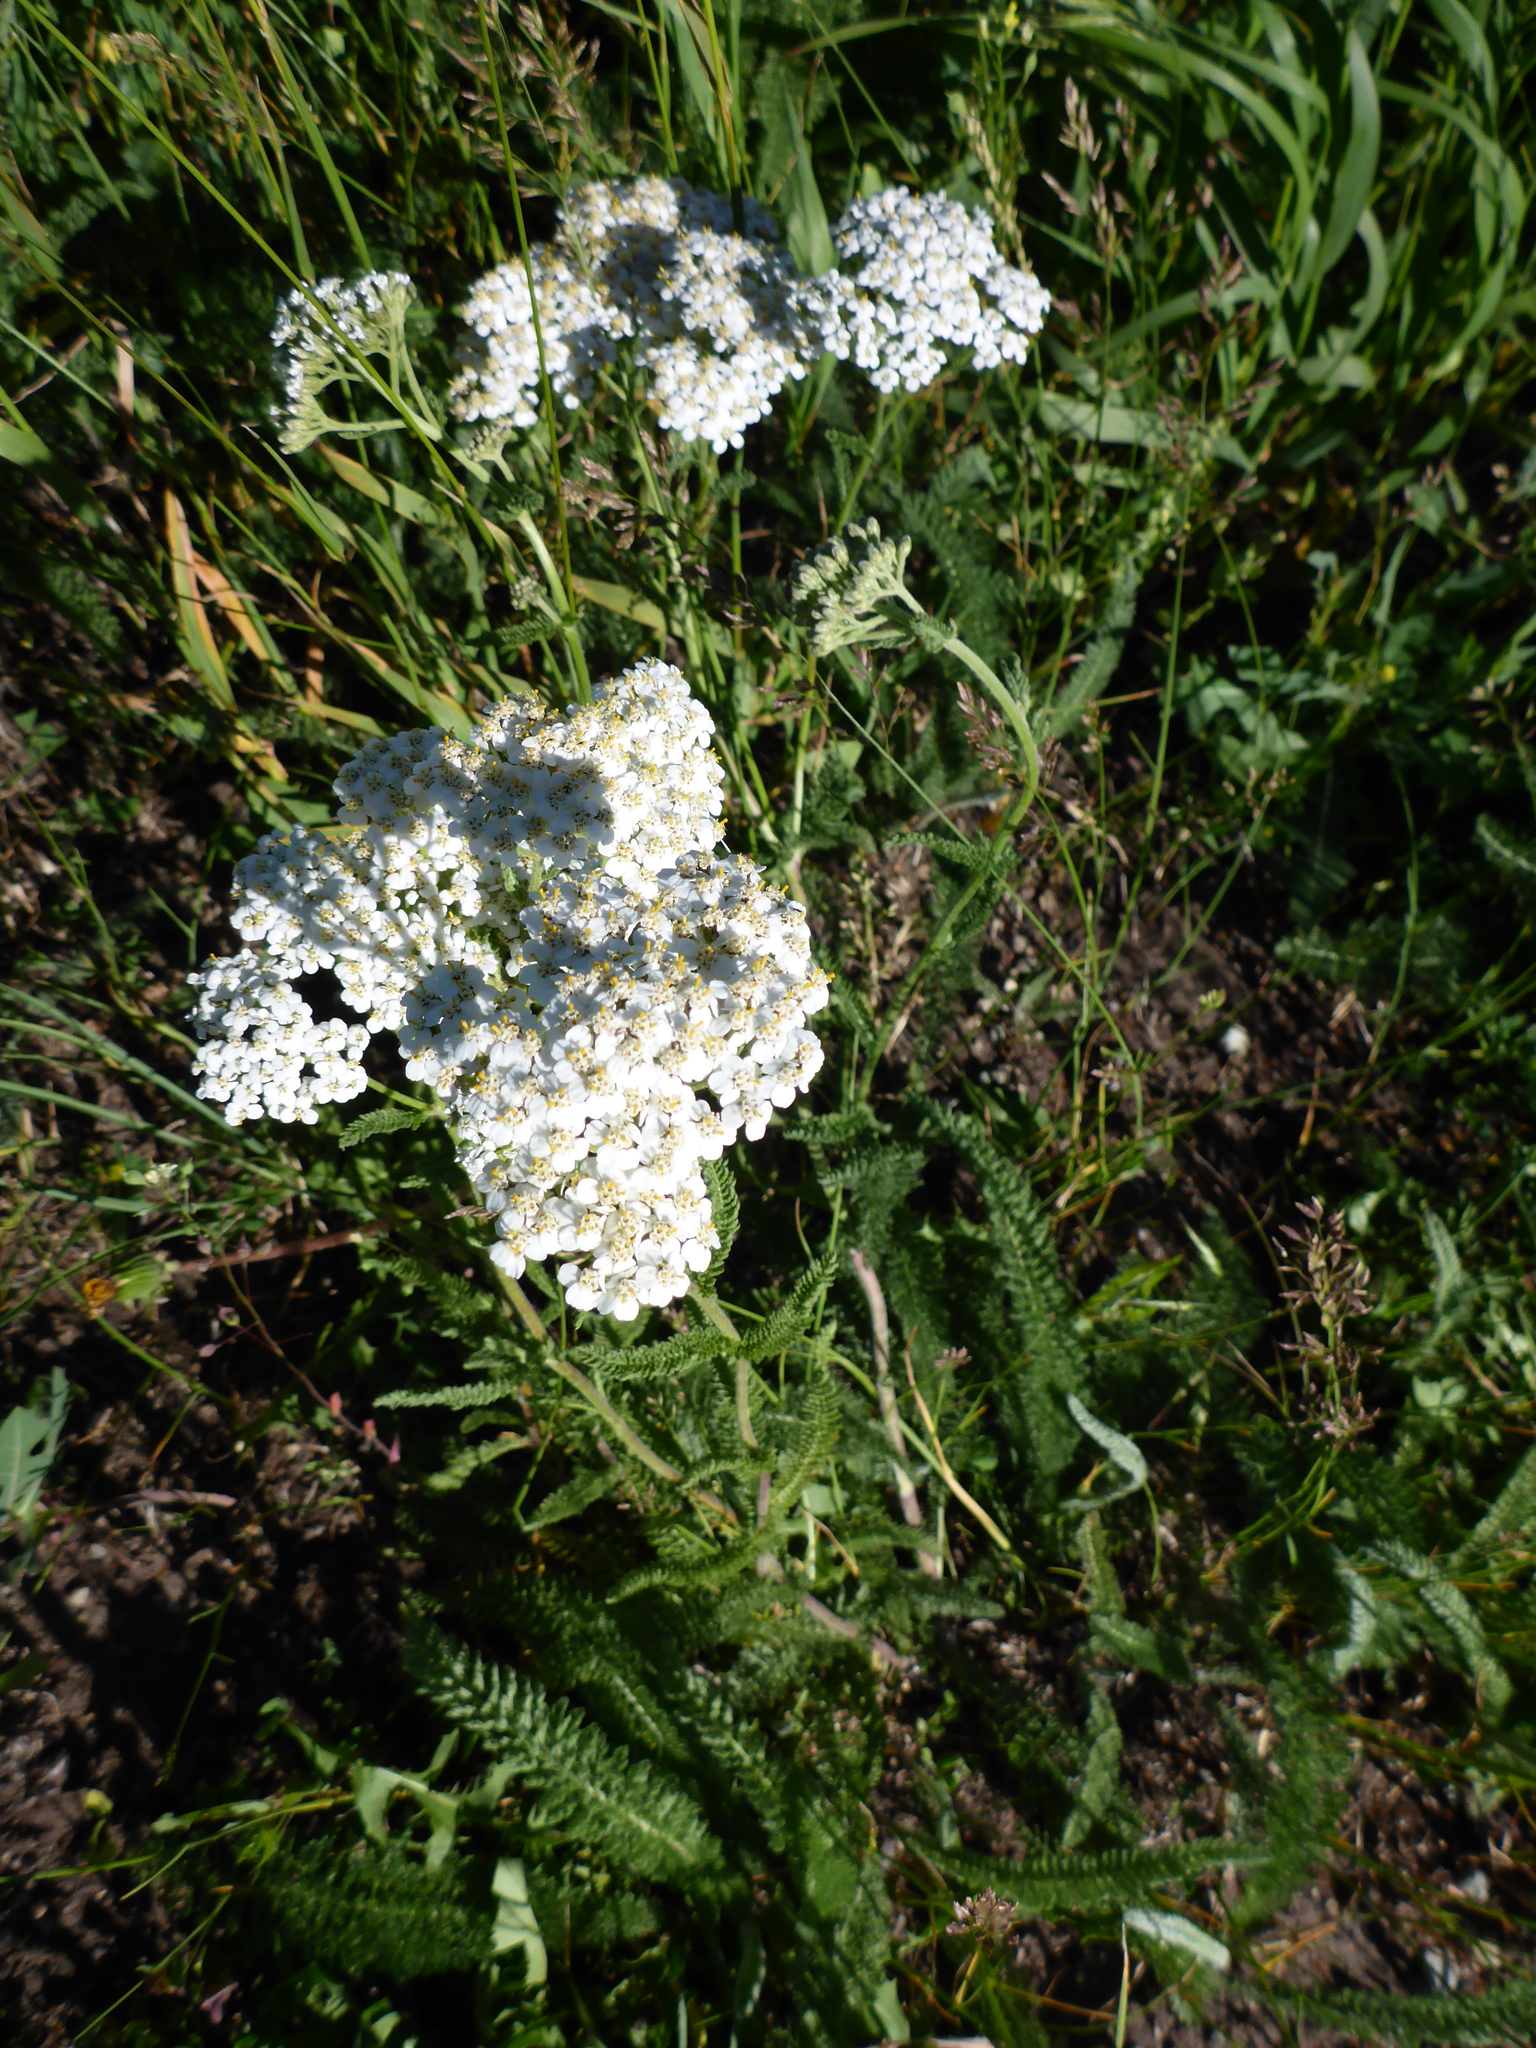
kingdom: Plantae
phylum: Tracheophyta
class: Magnoliopsida
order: Asterales
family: Asteraceae
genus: Achillea
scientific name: Achillea millefolium
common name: Yarrow
